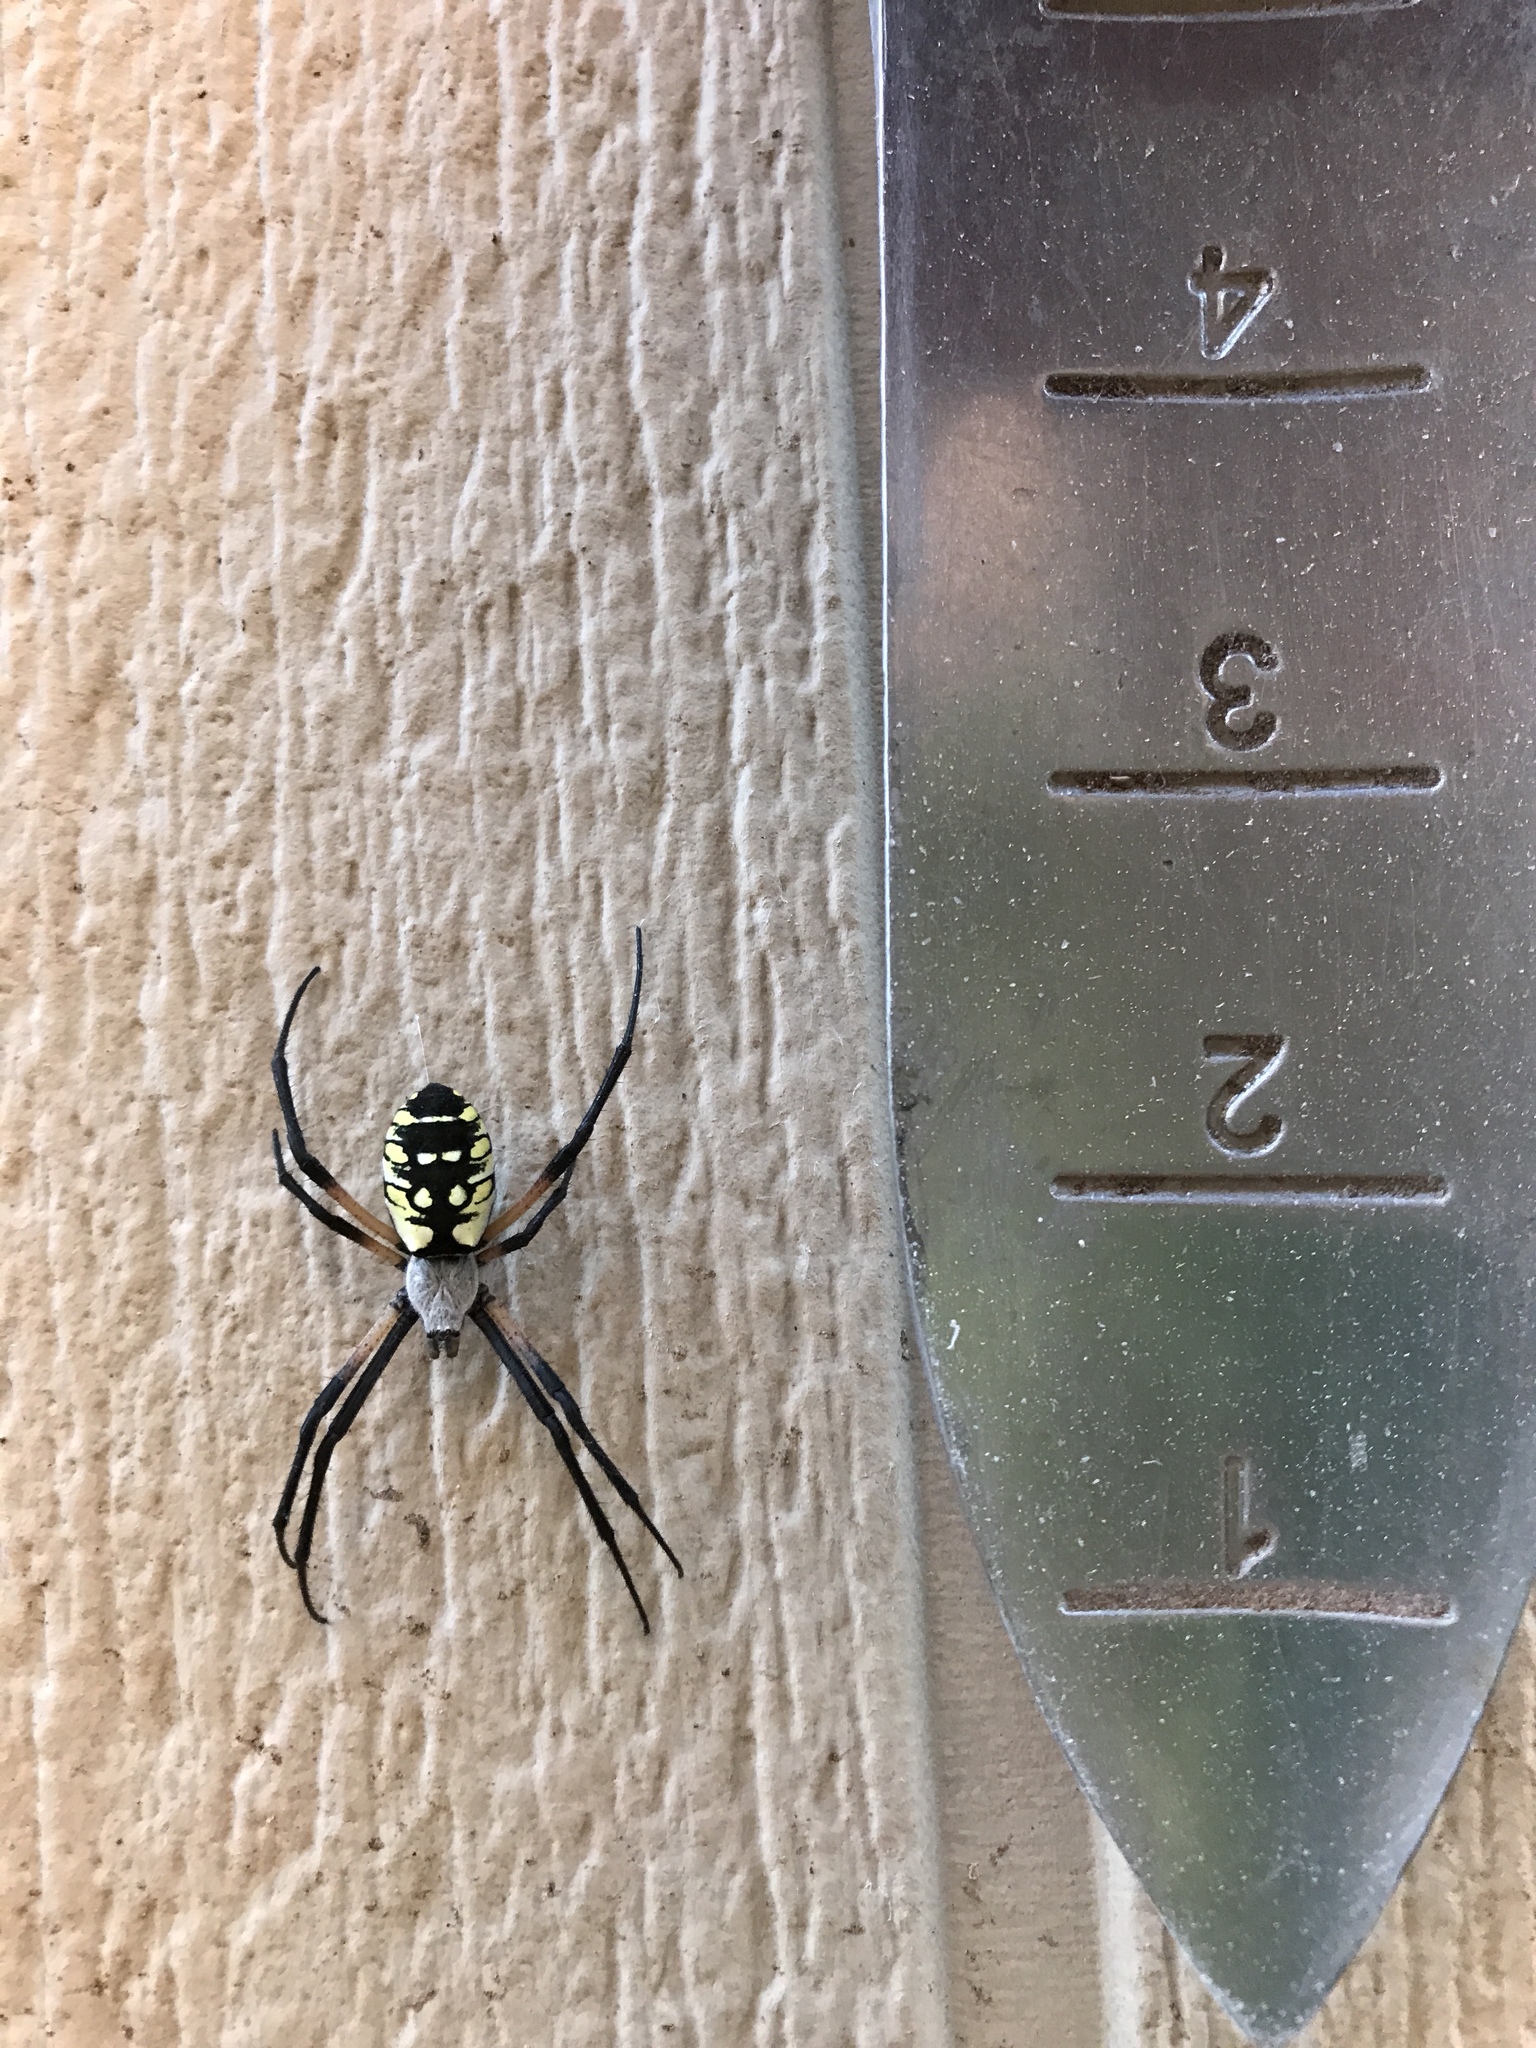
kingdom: Animalia
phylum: Arthropoda
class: Arachnida
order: Araneae
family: Araneidae
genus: Argiope
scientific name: Argiope aurantia
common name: Orb weavers
